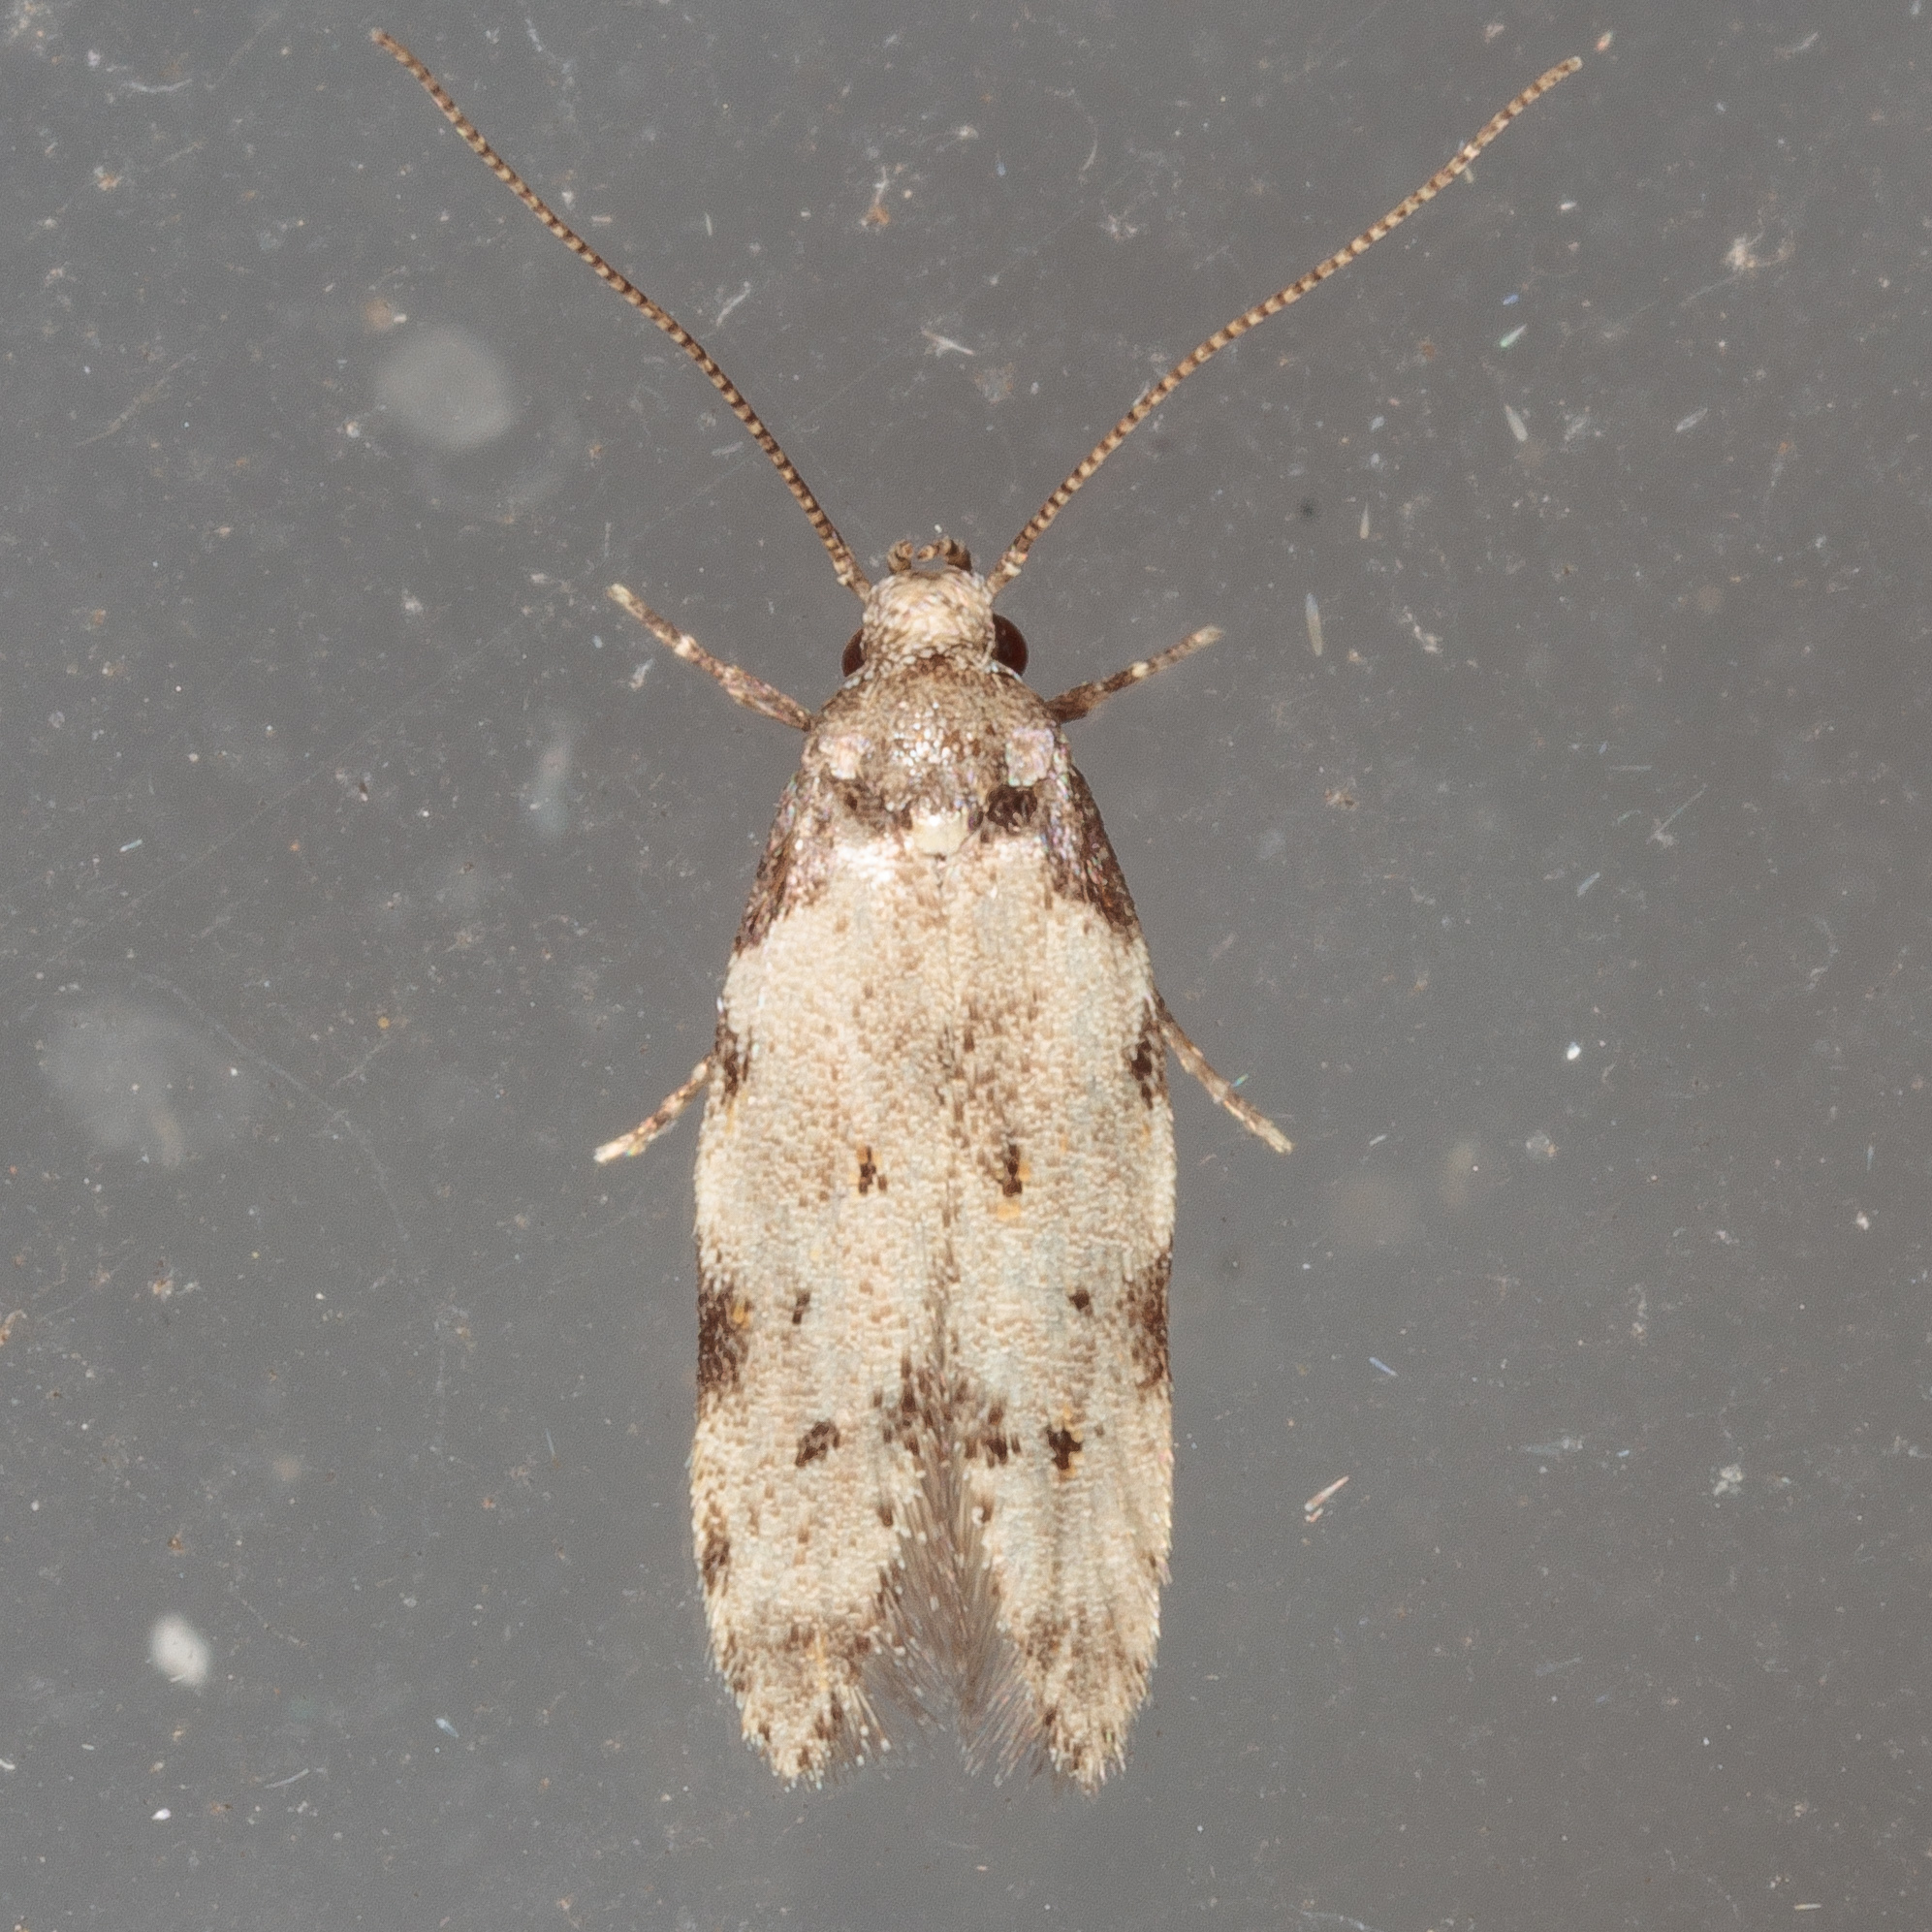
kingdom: Animalia
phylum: Arthropoda
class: Insecta
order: Lepidoptera
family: Autostichidae
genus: Taygete
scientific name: Taygete attributella
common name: Triangle-marked twirler moth
